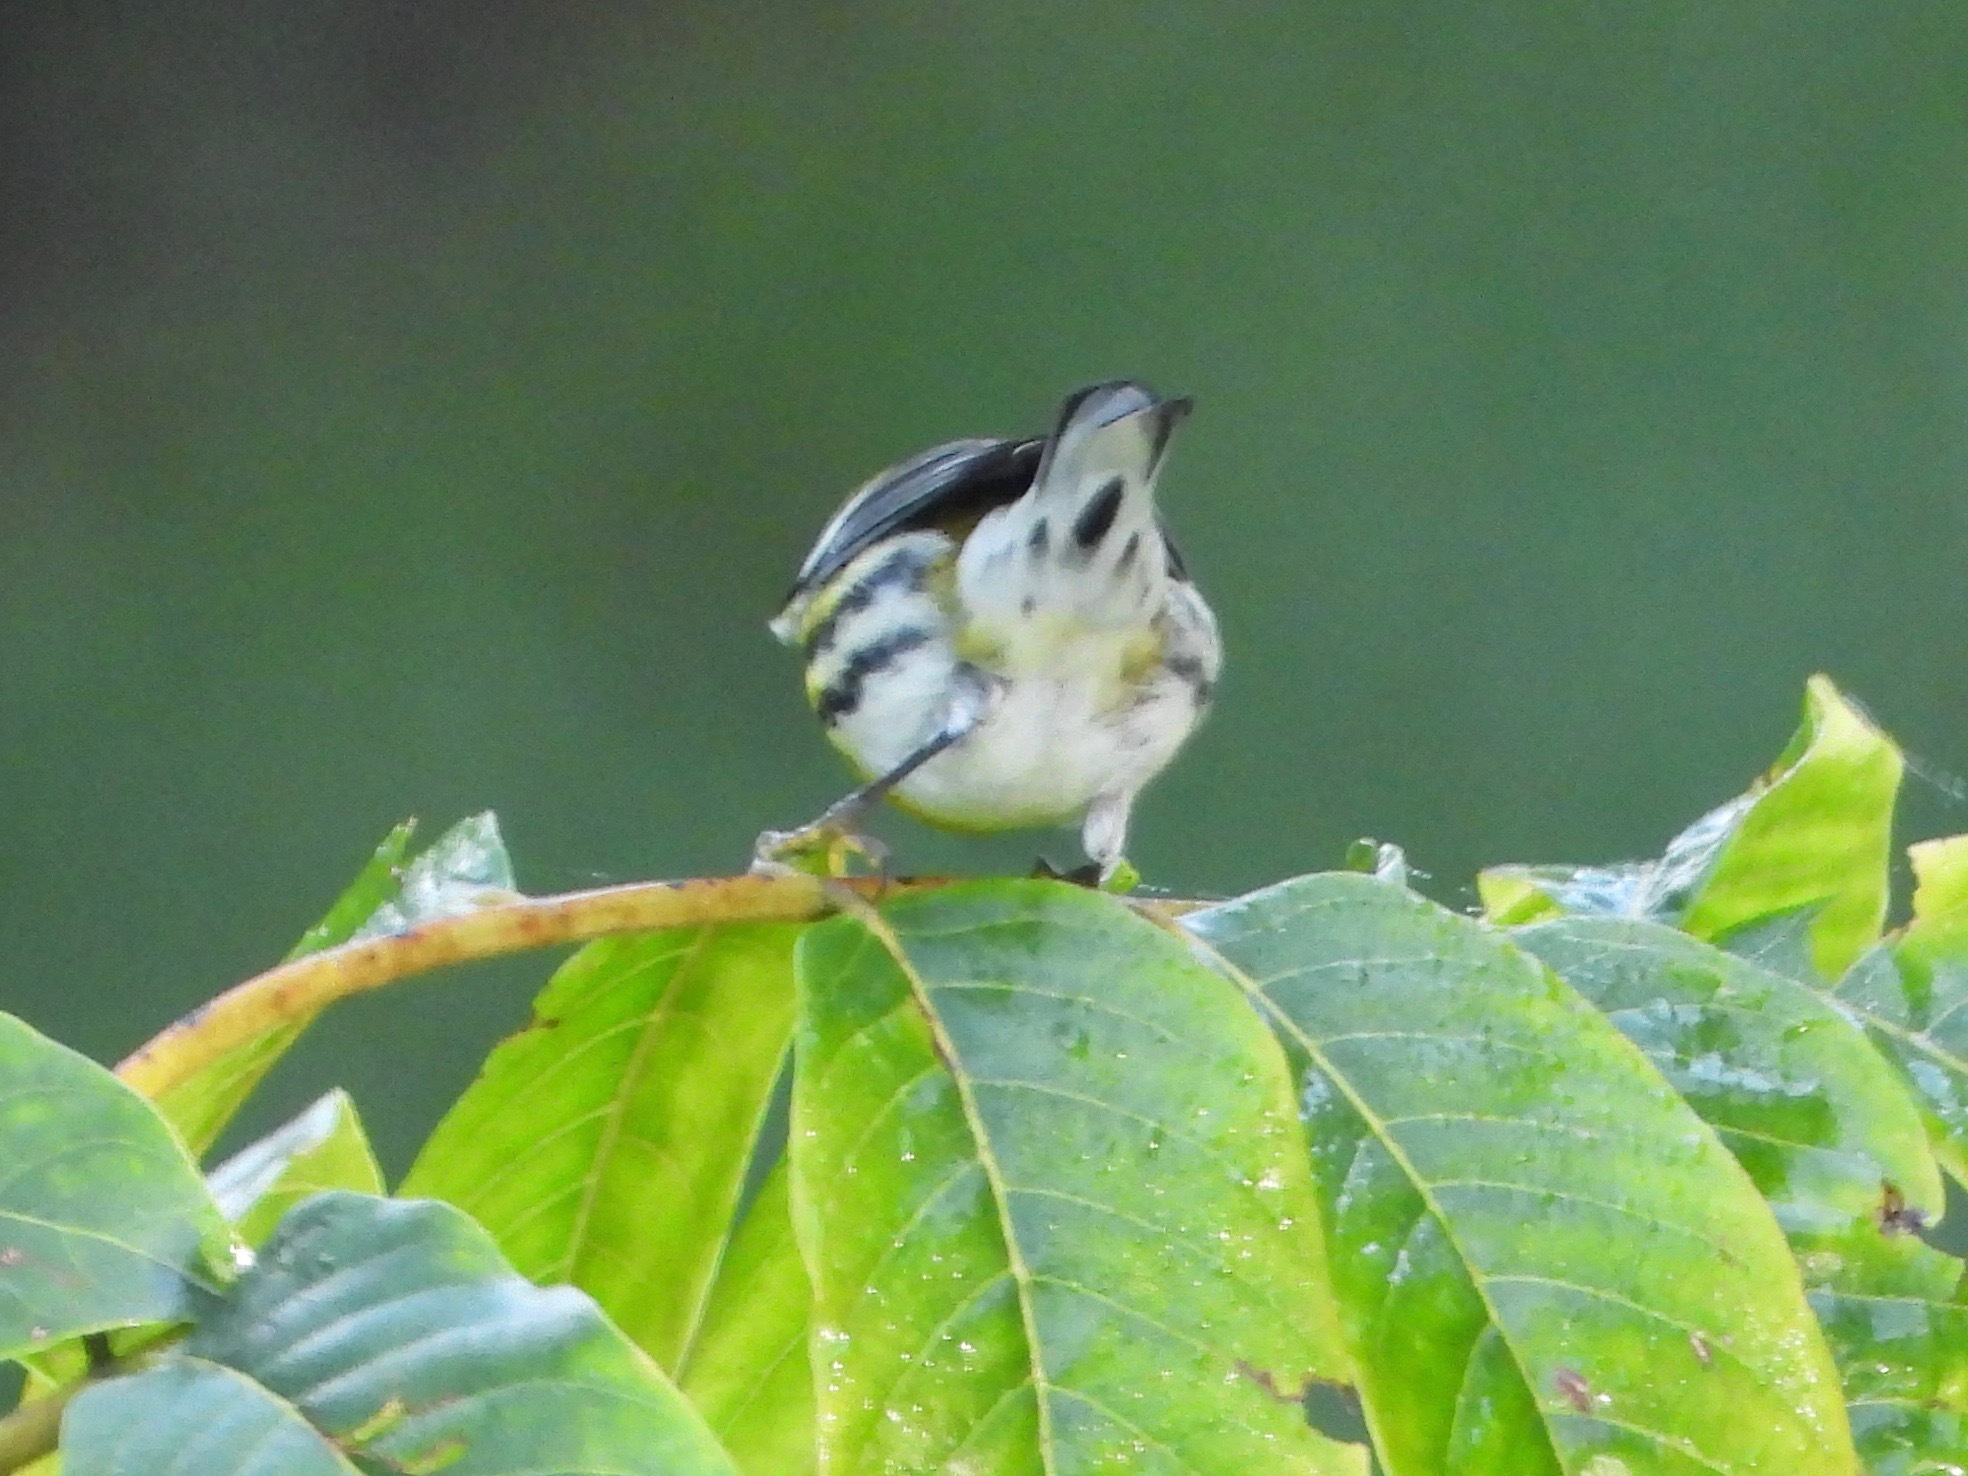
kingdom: Animalia
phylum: Chordata
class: Aves
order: Passeriformes
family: Parulidae
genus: Setophaga
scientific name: Setophaga townsendi
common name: Townsend's warbler
